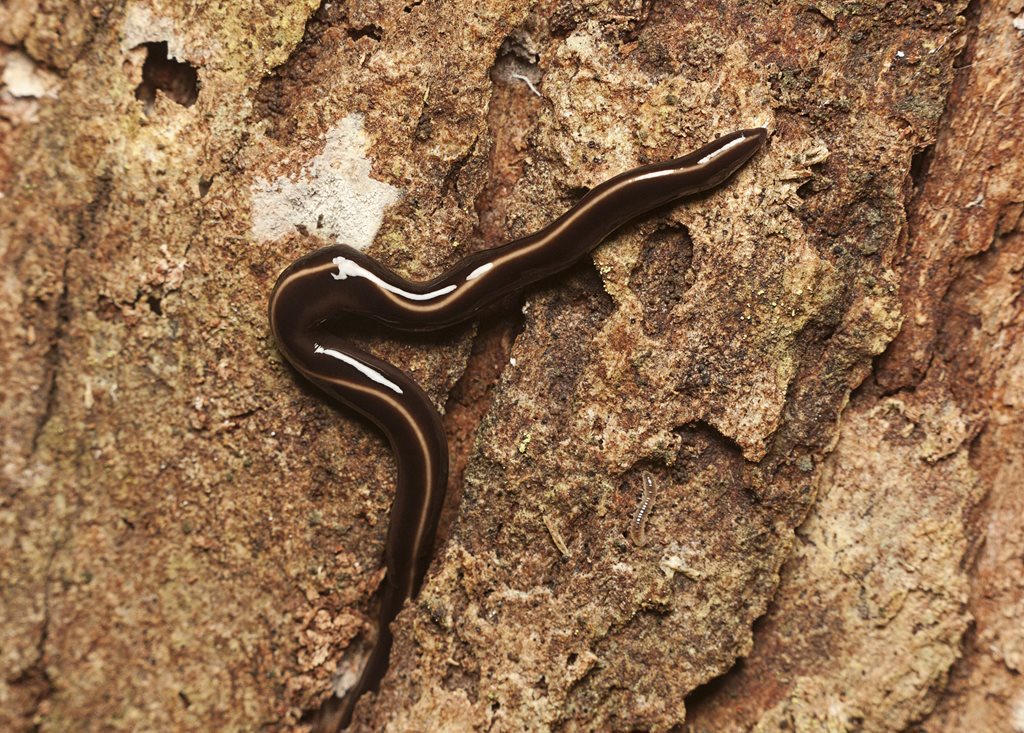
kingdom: Animalia
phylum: Platyhelminthes
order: Tricladida
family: Geoplanidae
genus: Caenoplana
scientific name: Caenoplana coerulea
